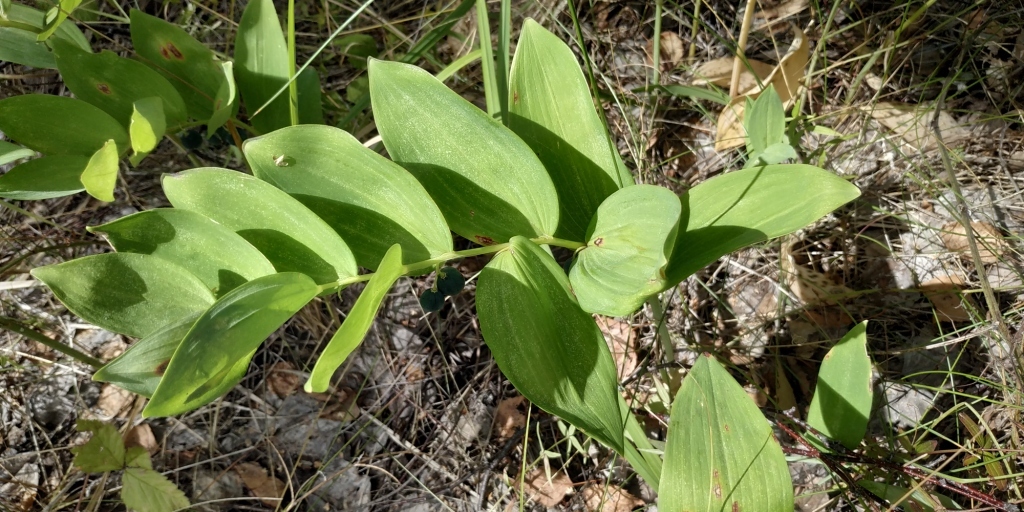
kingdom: Plantae
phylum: Tracheophyta
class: Liliopsida
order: Asparagales
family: Asparagaceae
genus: Polygonatum
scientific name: Polygonatum odoratum
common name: Angular solomon's-seal
